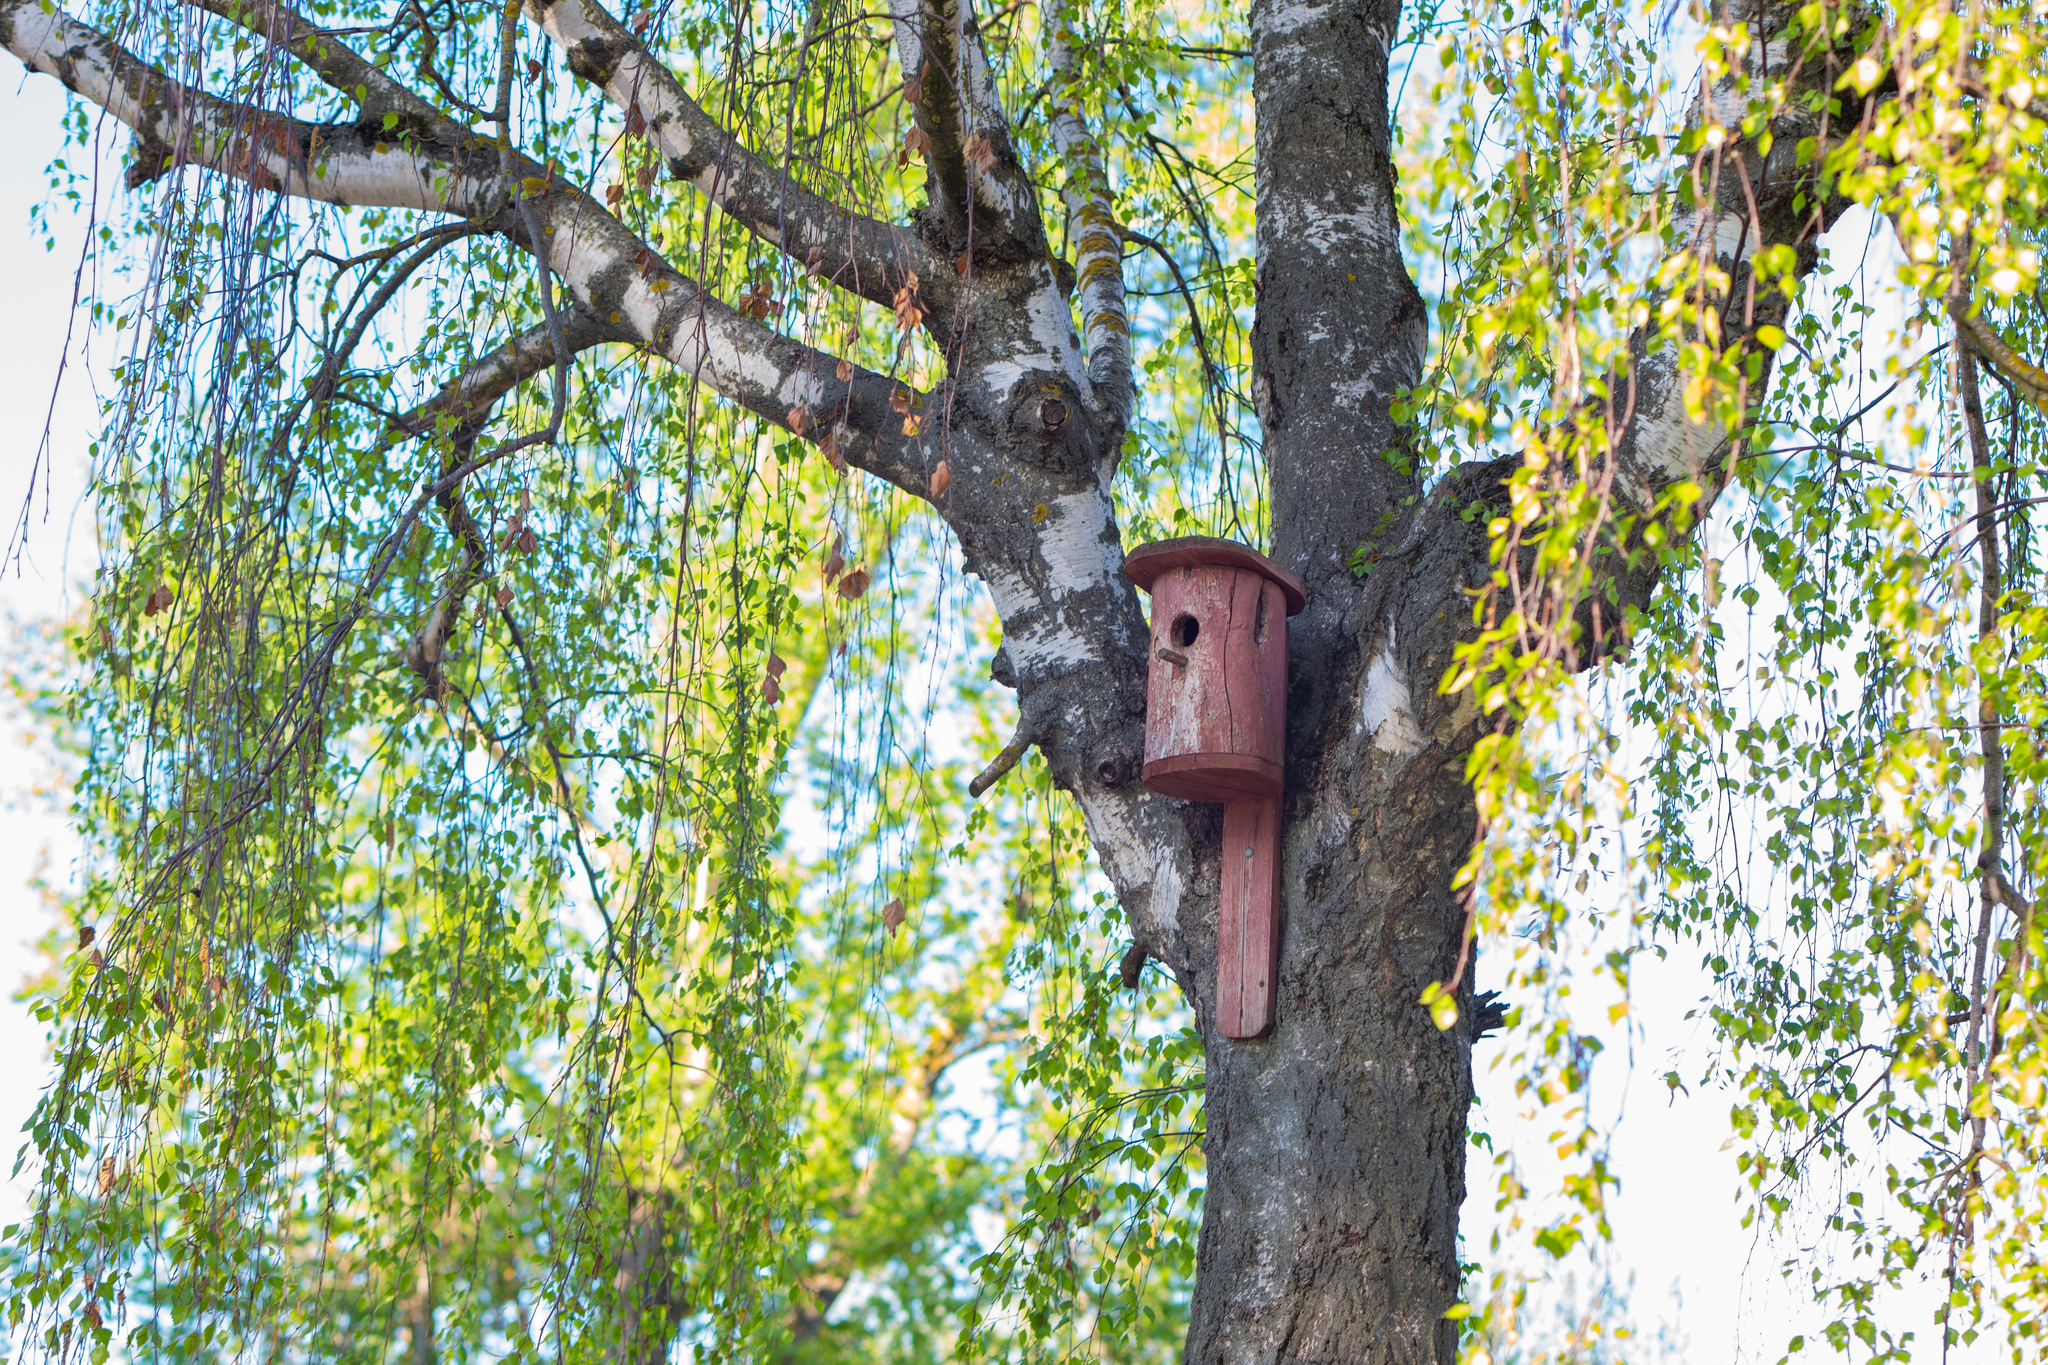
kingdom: Plantae
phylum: Tracheophyta
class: Magnoliopsida
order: Fagales
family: Betulaceae
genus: Betula
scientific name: Betula pendula
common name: Silver birch
